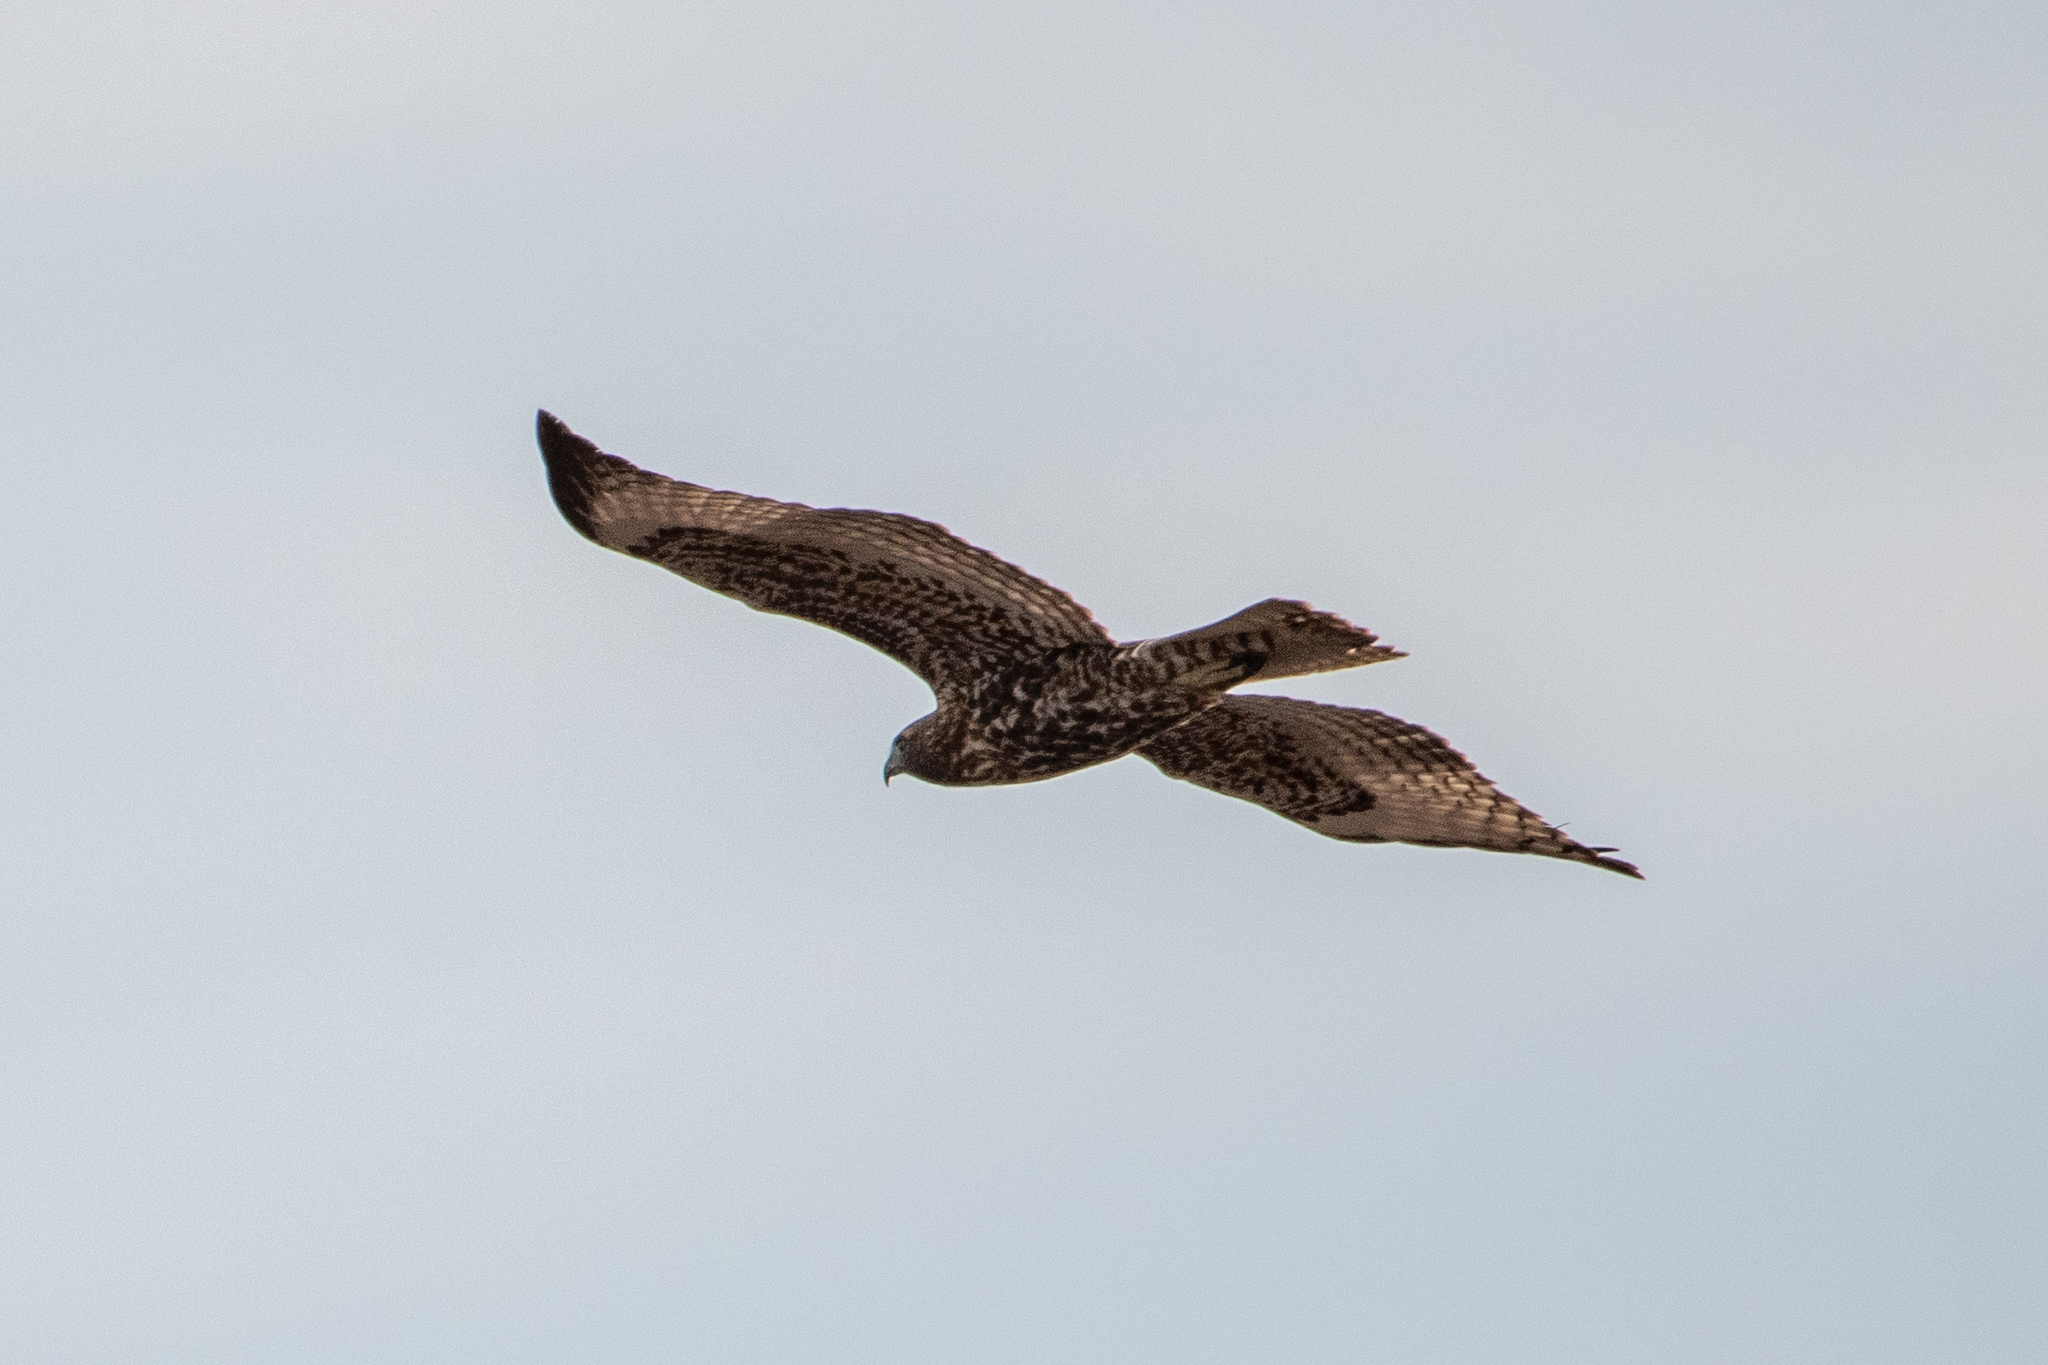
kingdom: Animalia
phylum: Chordata
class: Aves
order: Accipitriformes
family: Accipitridae
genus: Buteo
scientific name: Buteo jamaicensis
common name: Red-tailed hawk
